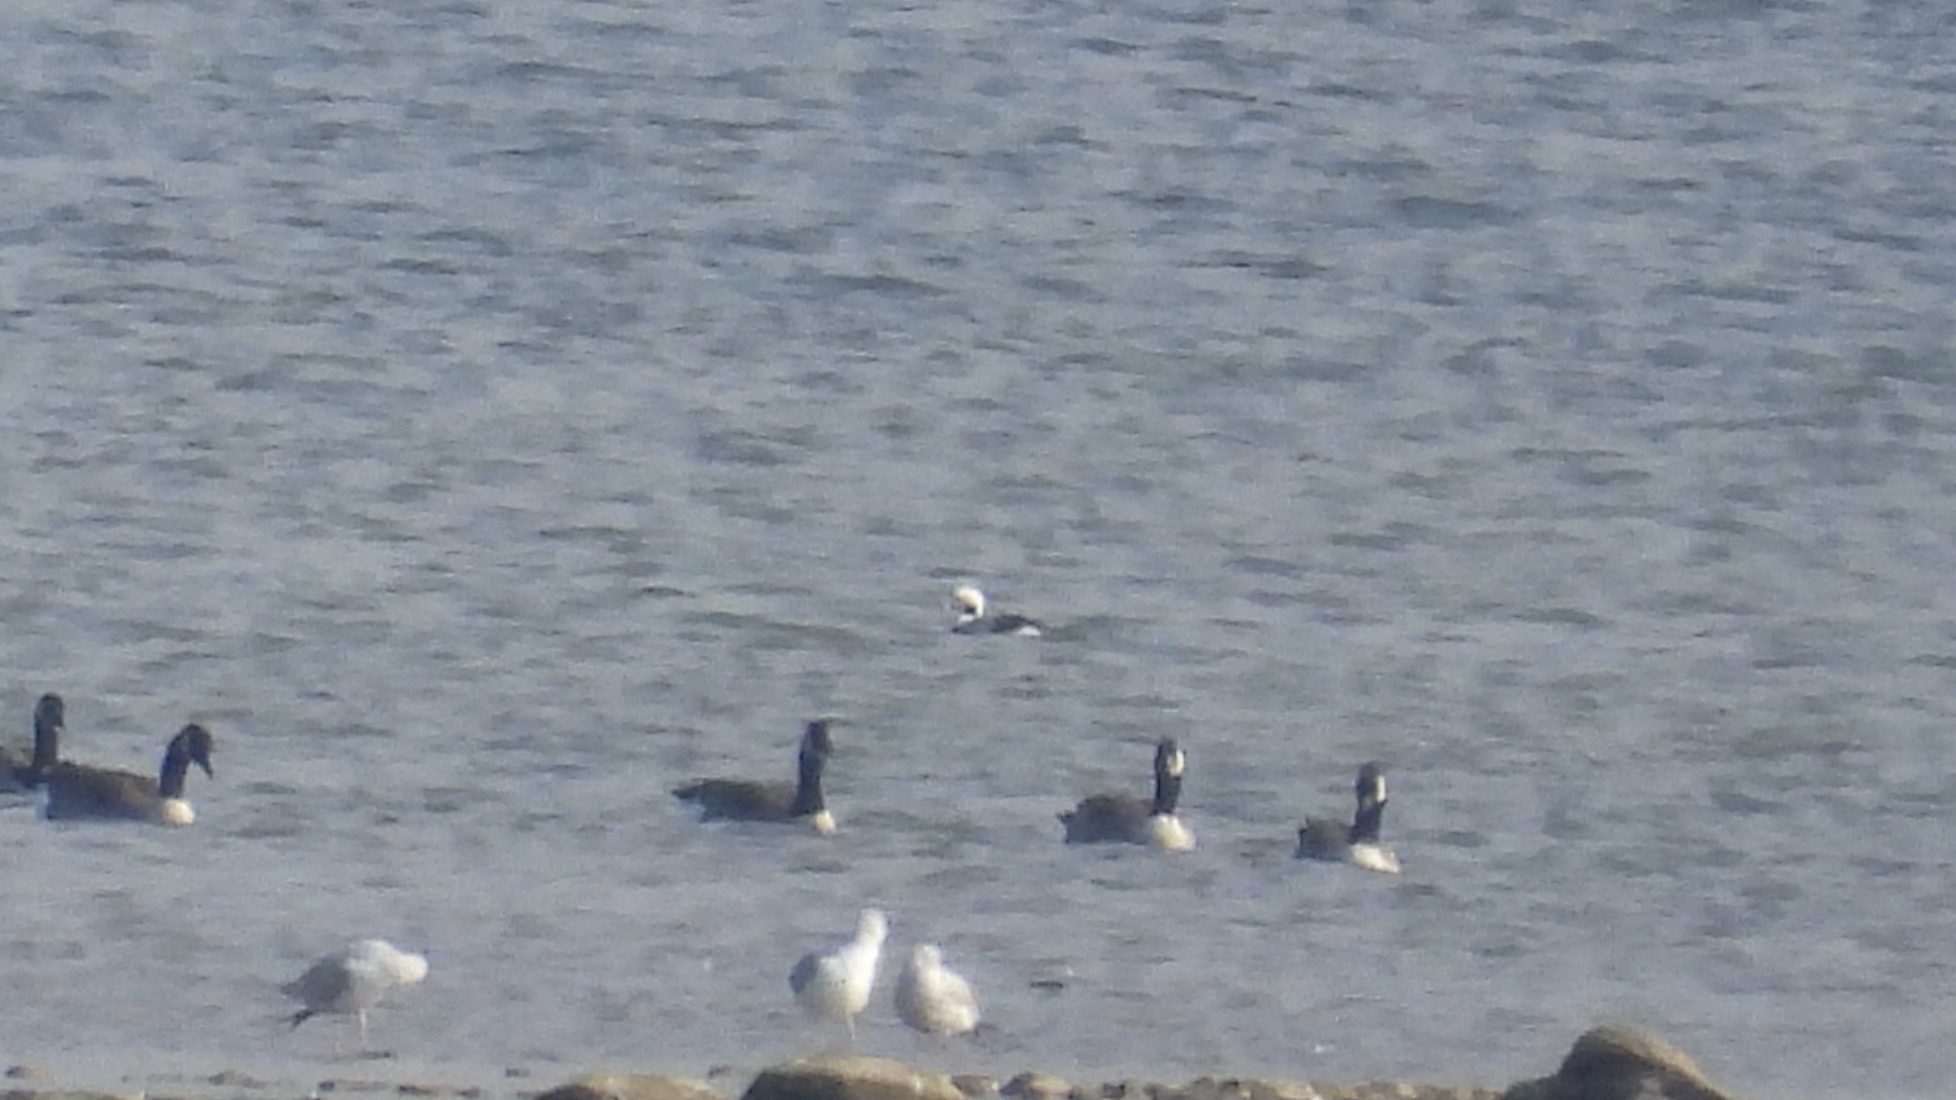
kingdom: Animalia
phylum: Chordata
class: Aves
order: Anseriformes
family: Anatidae
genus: Clangula
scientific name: Clangula hyemalis
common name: Long-tailed duck
